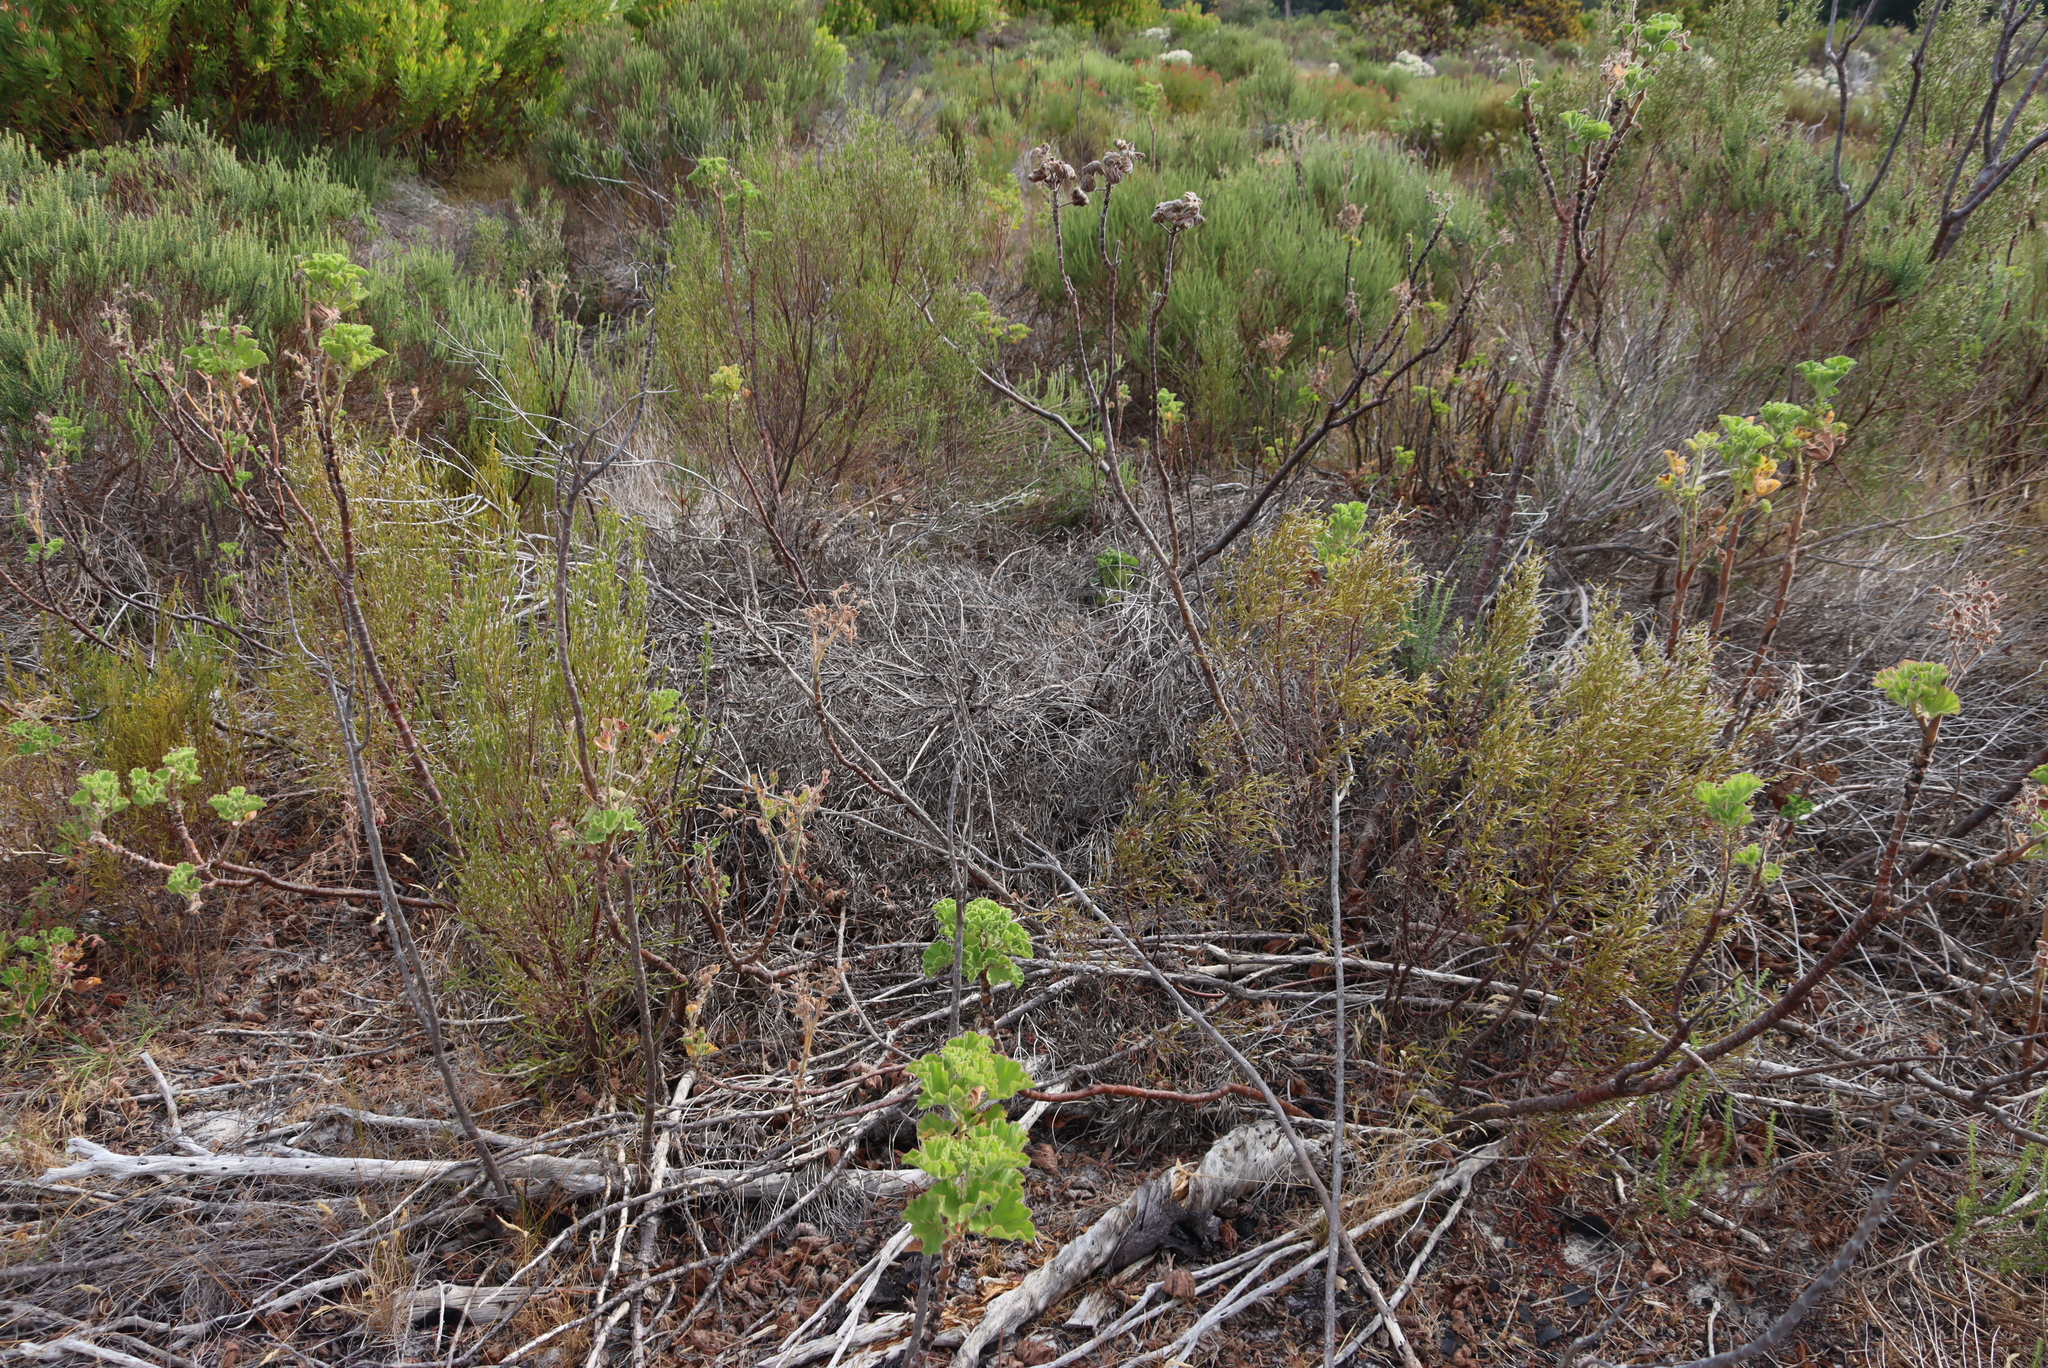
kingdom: Plantae
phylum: Tracheophyta
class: Magnoliopsida
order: Proteales
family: Proteaceae
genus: Leucadendron
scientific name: Leucadendron salignum
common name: Common sunshine conebush
